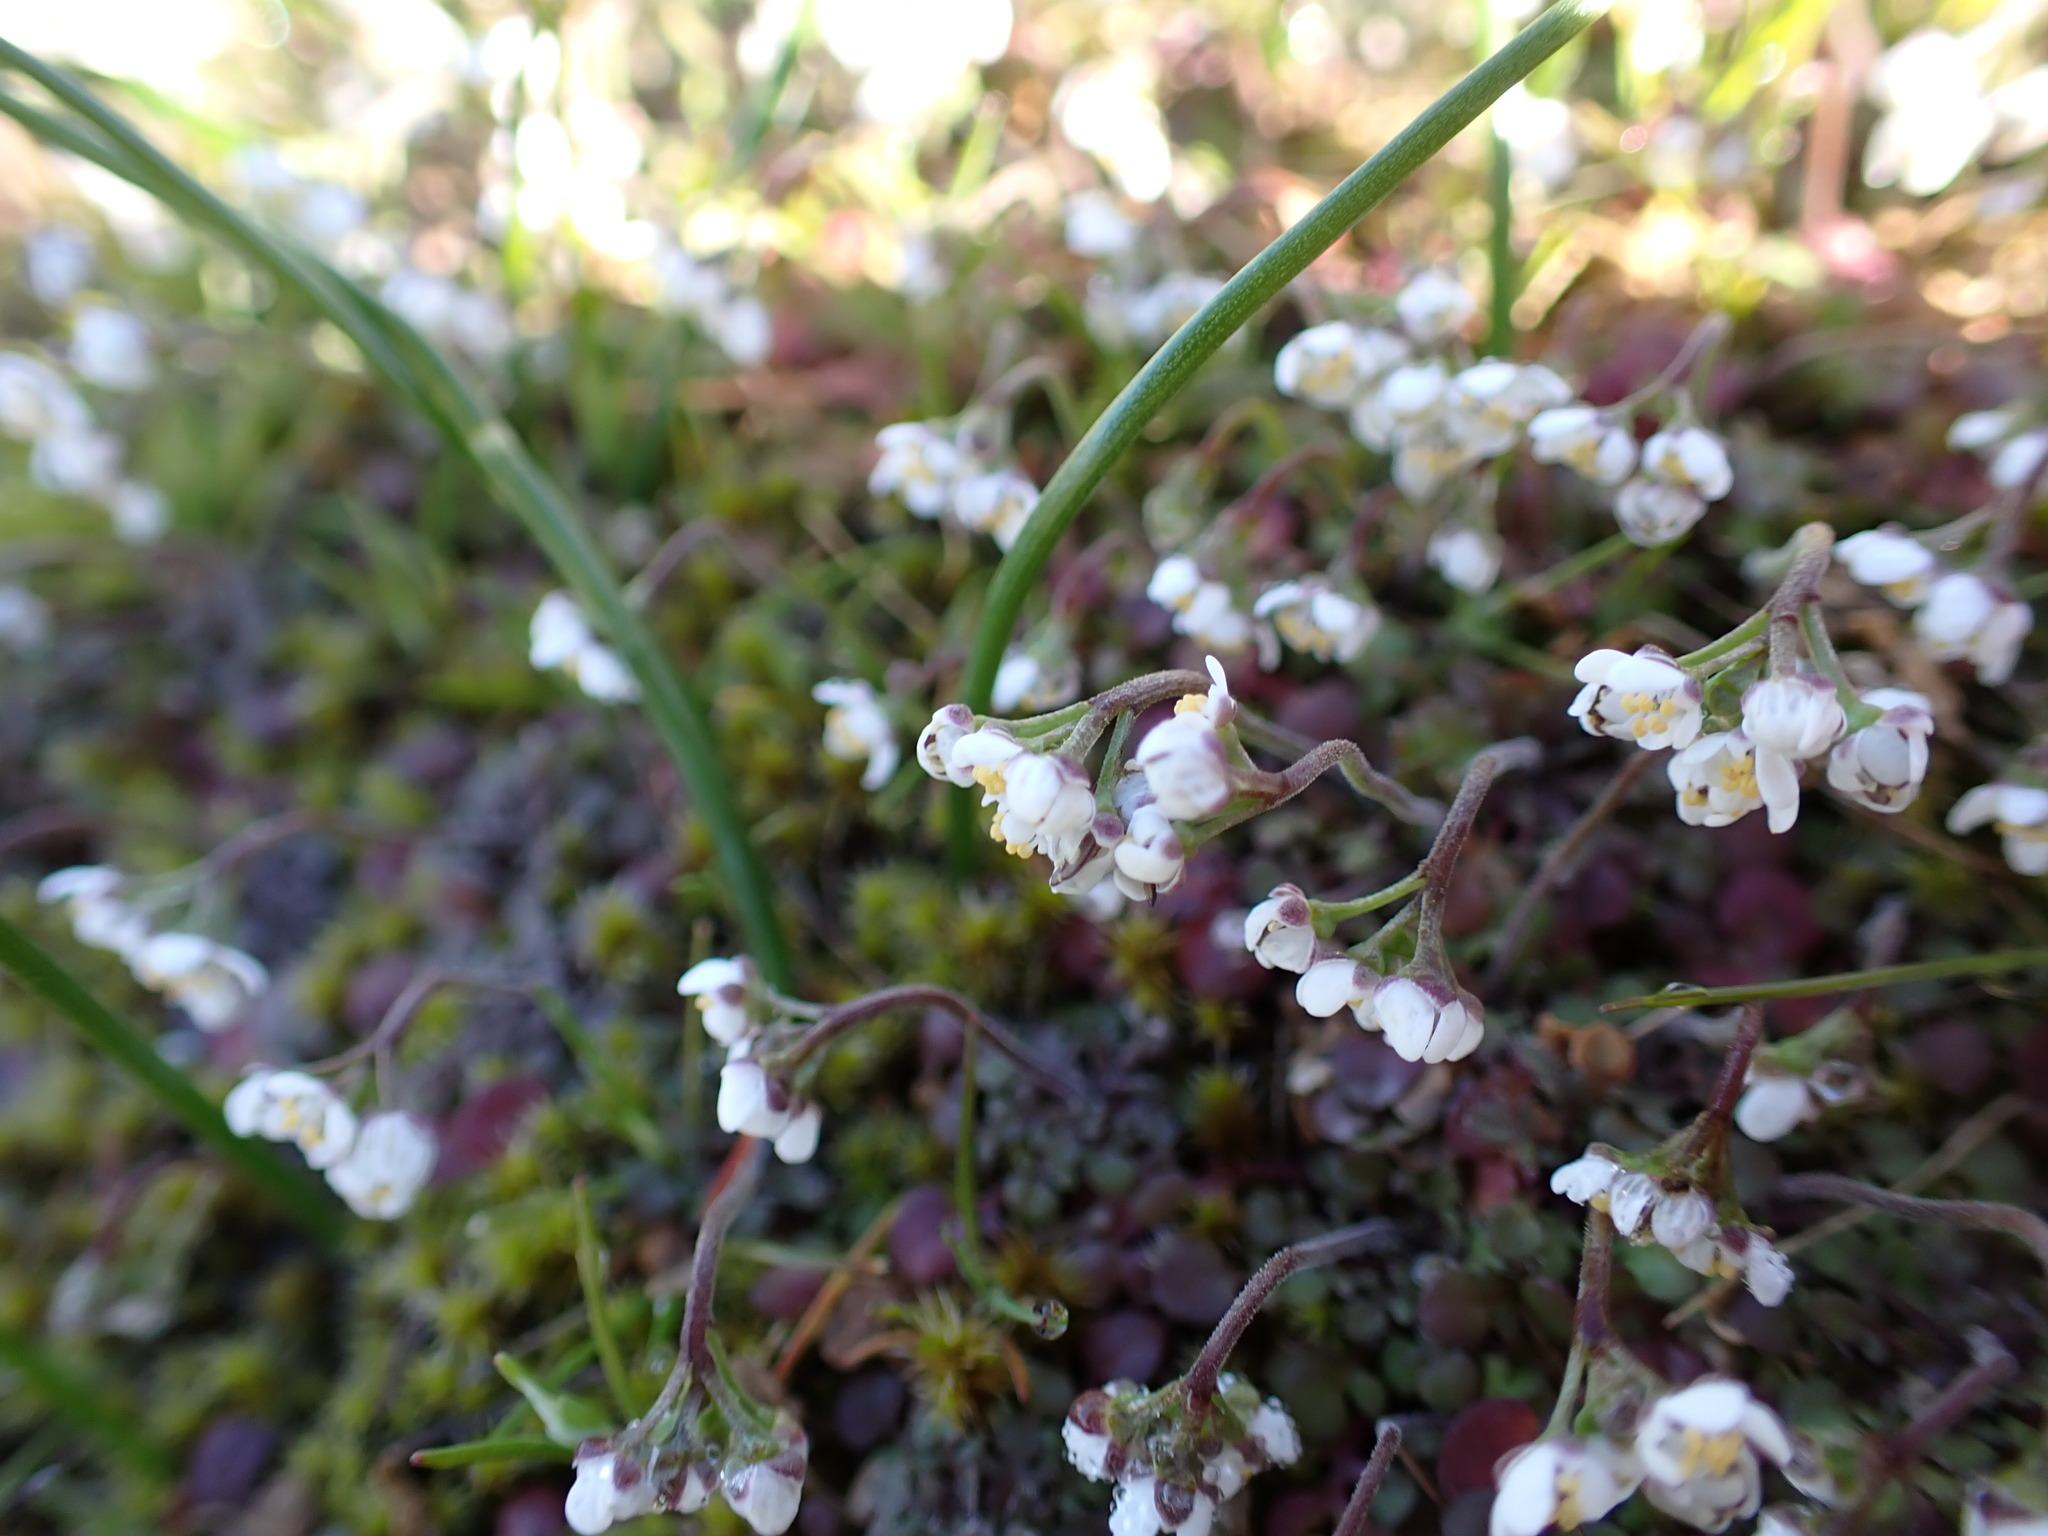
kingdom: Plantae
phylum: Tracheophyta
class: Magnoliopsida
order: Brassicales
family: Brassicaceae
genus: Teesdalia
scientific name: Teesdalia nudicaulis
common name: Shepherd's cress
